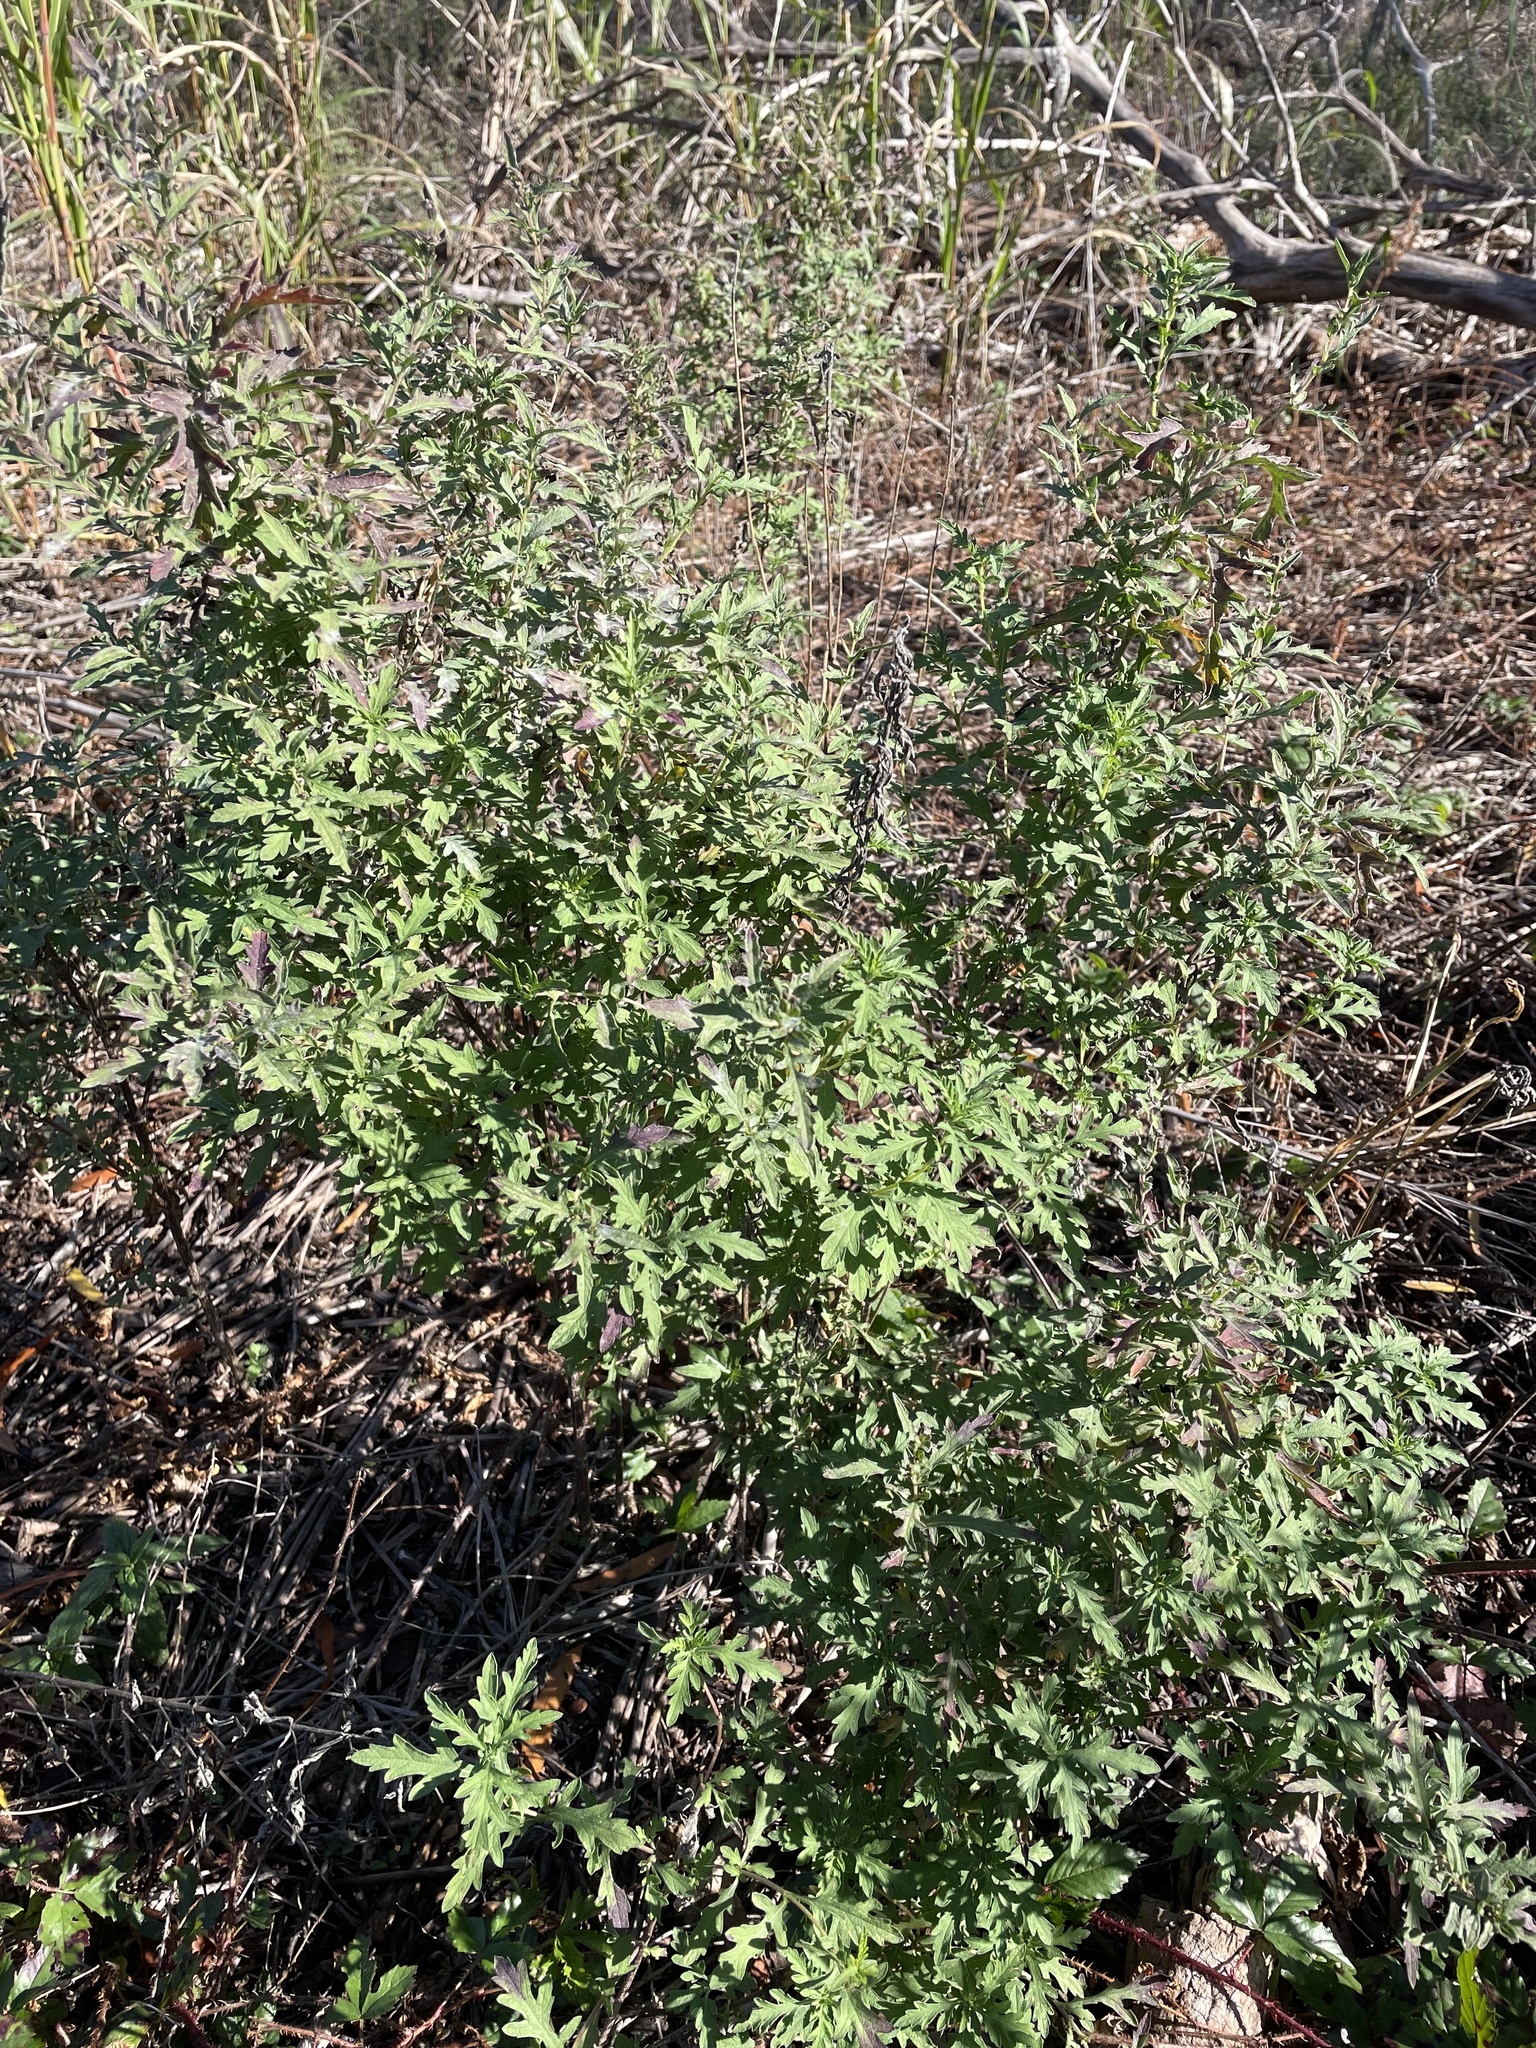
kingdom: Plantae
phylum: Tracheophyta
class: Magnoliopsida
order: Asterales
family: Asteraceae
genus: Ambrosia
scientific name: Ambrosia psilostachya
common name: Perennial ragweed
